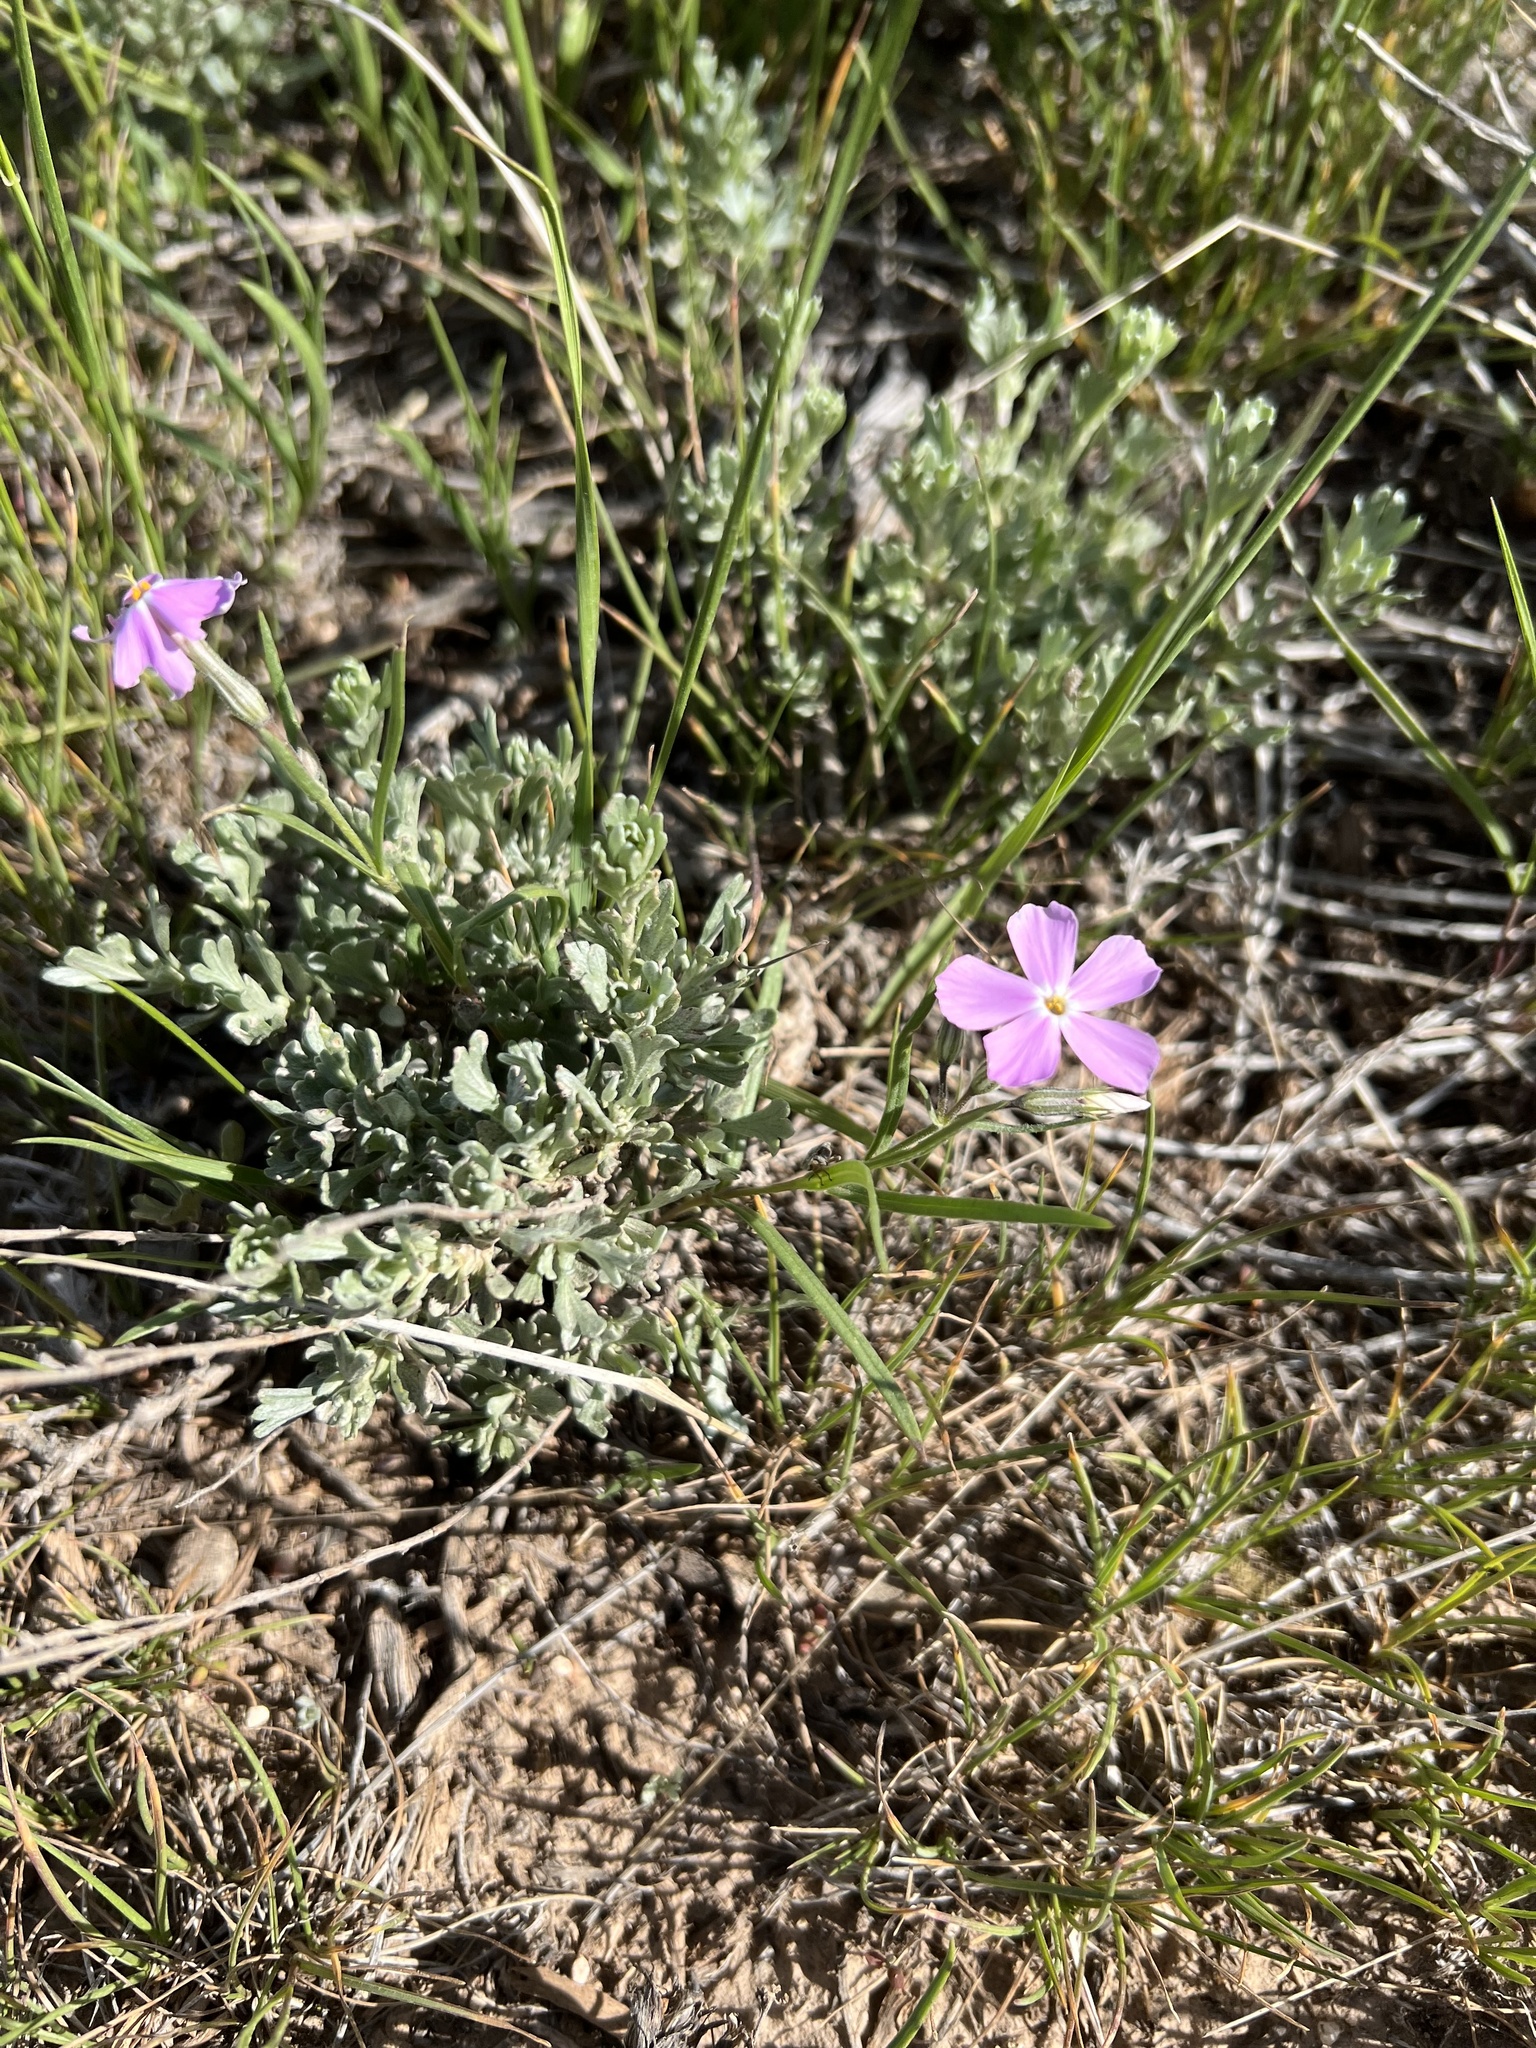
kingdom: Plantae
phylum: Tracheophyta
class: Magnoliopsida
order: Ericales
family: Polemoniaceae
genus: Phlox
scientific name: Phlox longifolia
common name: Longleaf phlox
